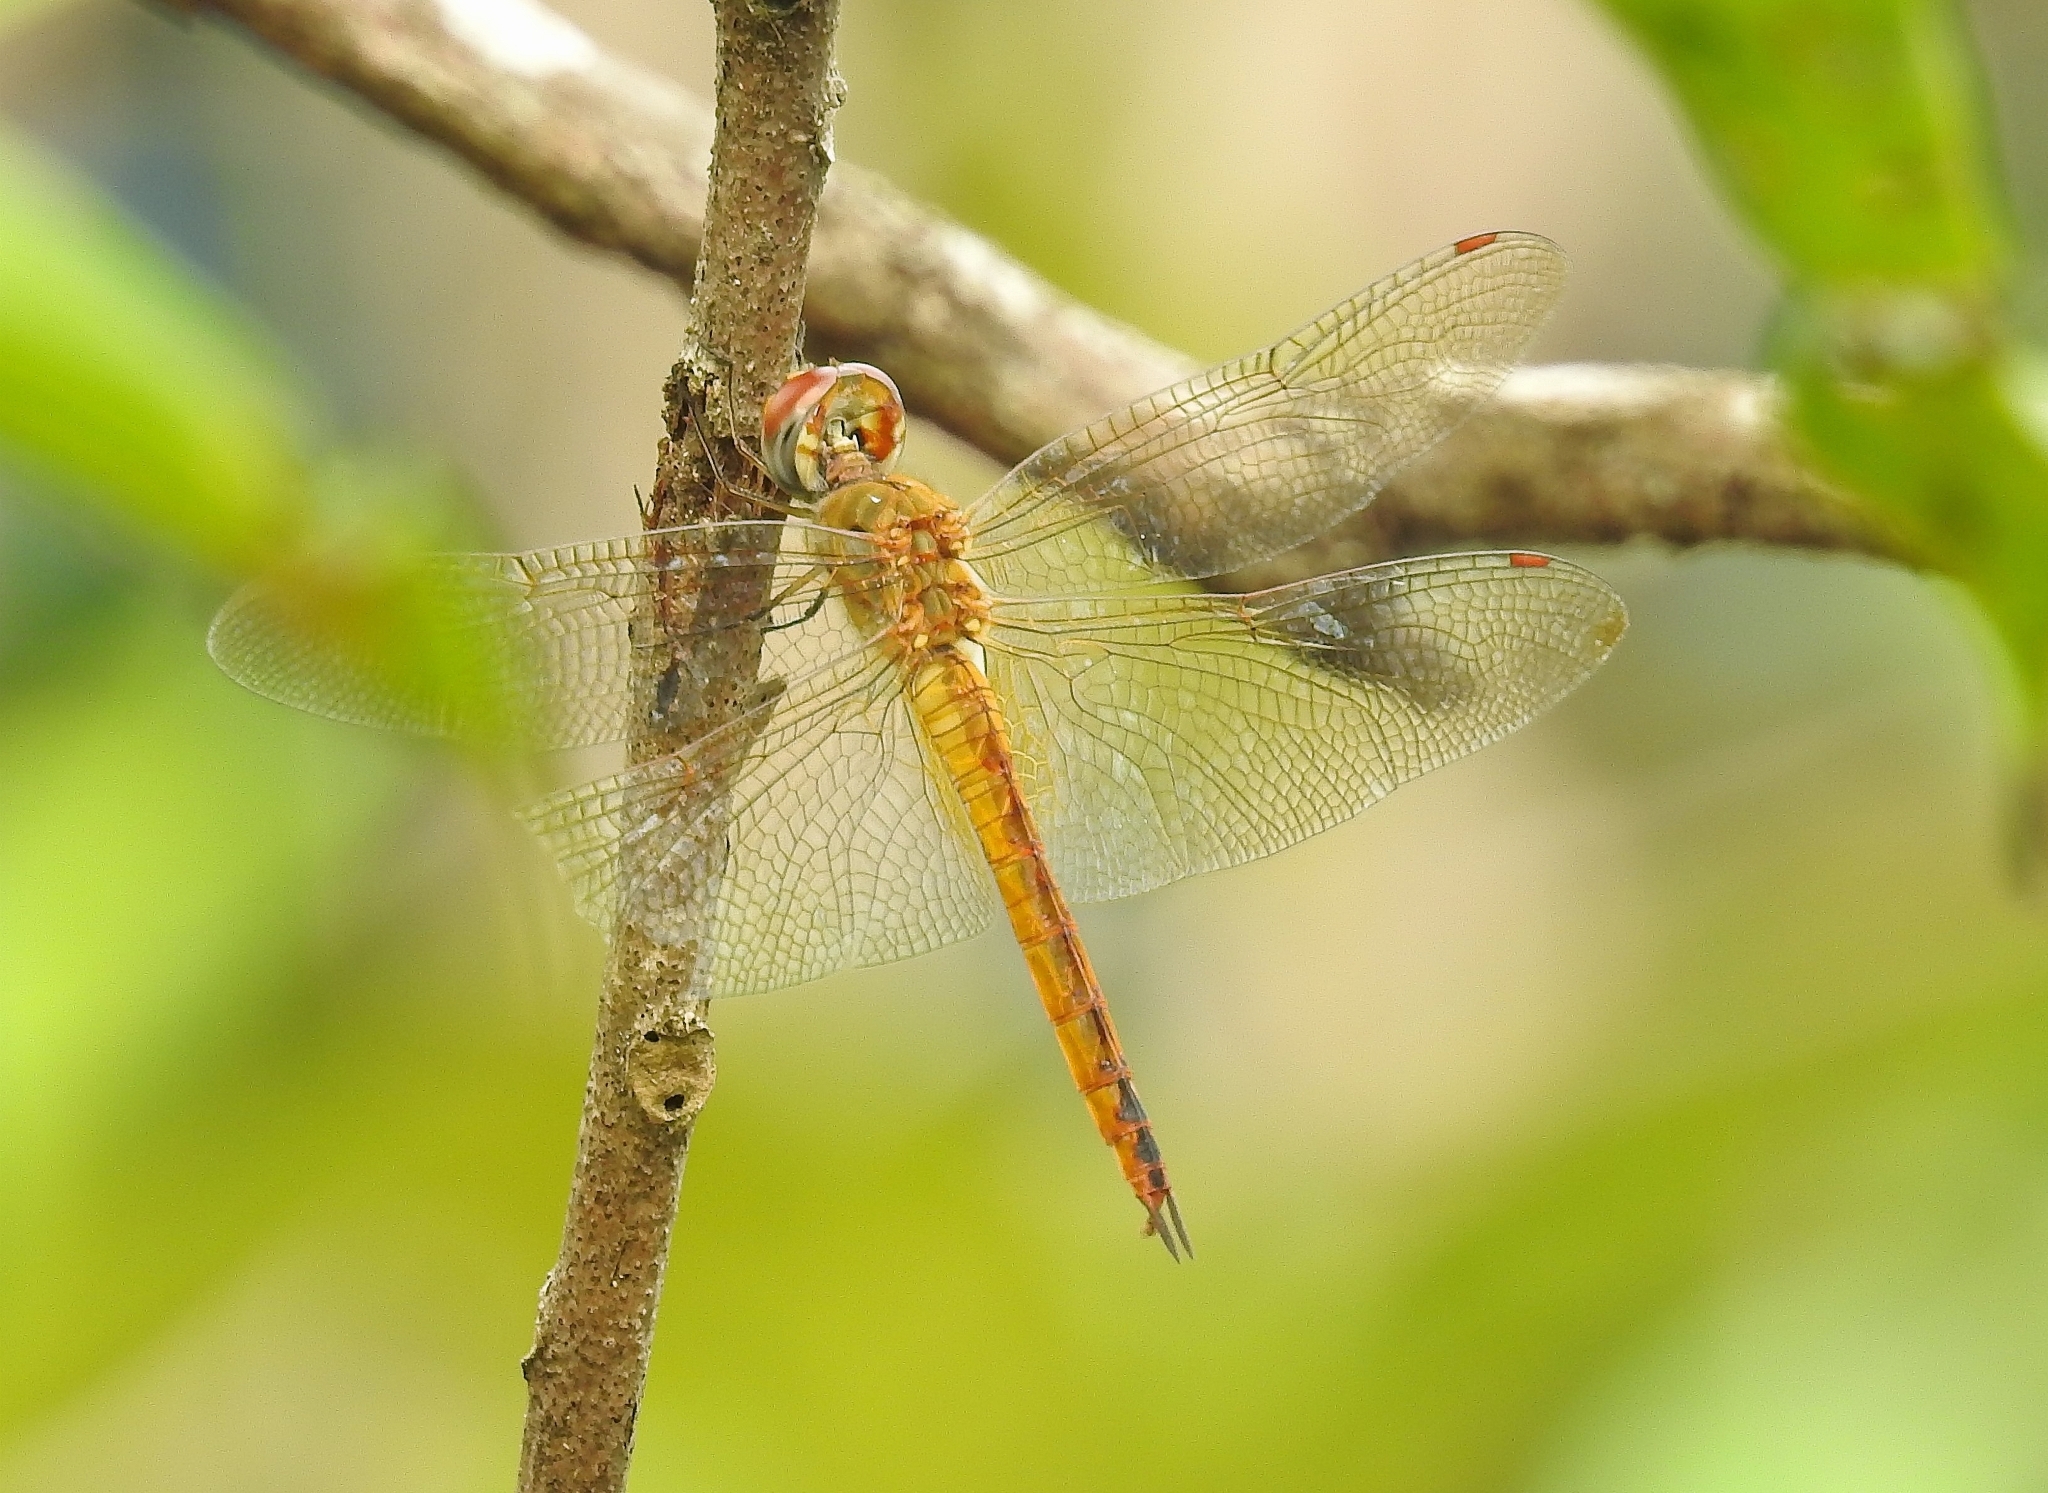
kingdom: Animalia
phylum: Arthropoda
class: Insecta
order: Odonata
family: Libellulidae
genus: Pantala
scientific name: Pantala flavescens
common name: Wandering glider
